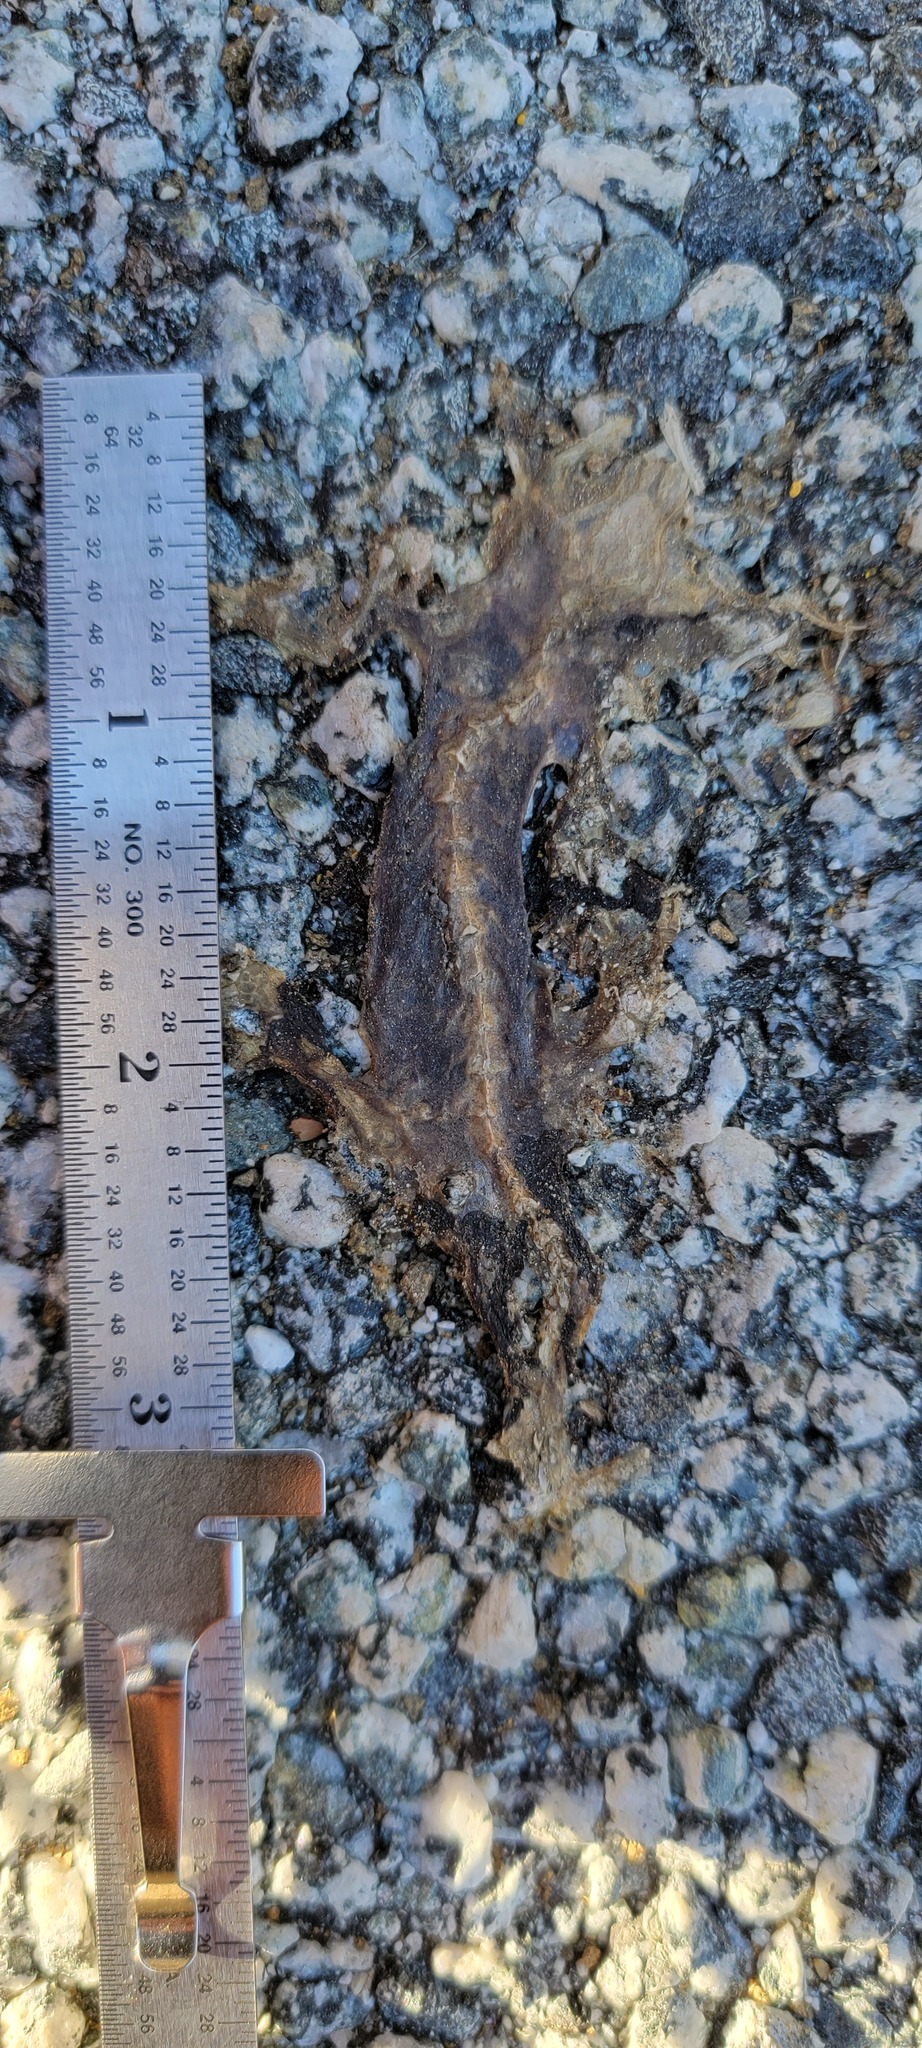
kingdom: Animalia
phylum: Chordata
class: Amphibia
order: Caudata
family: Salamandridae
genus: Taricha
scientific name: Taricha
